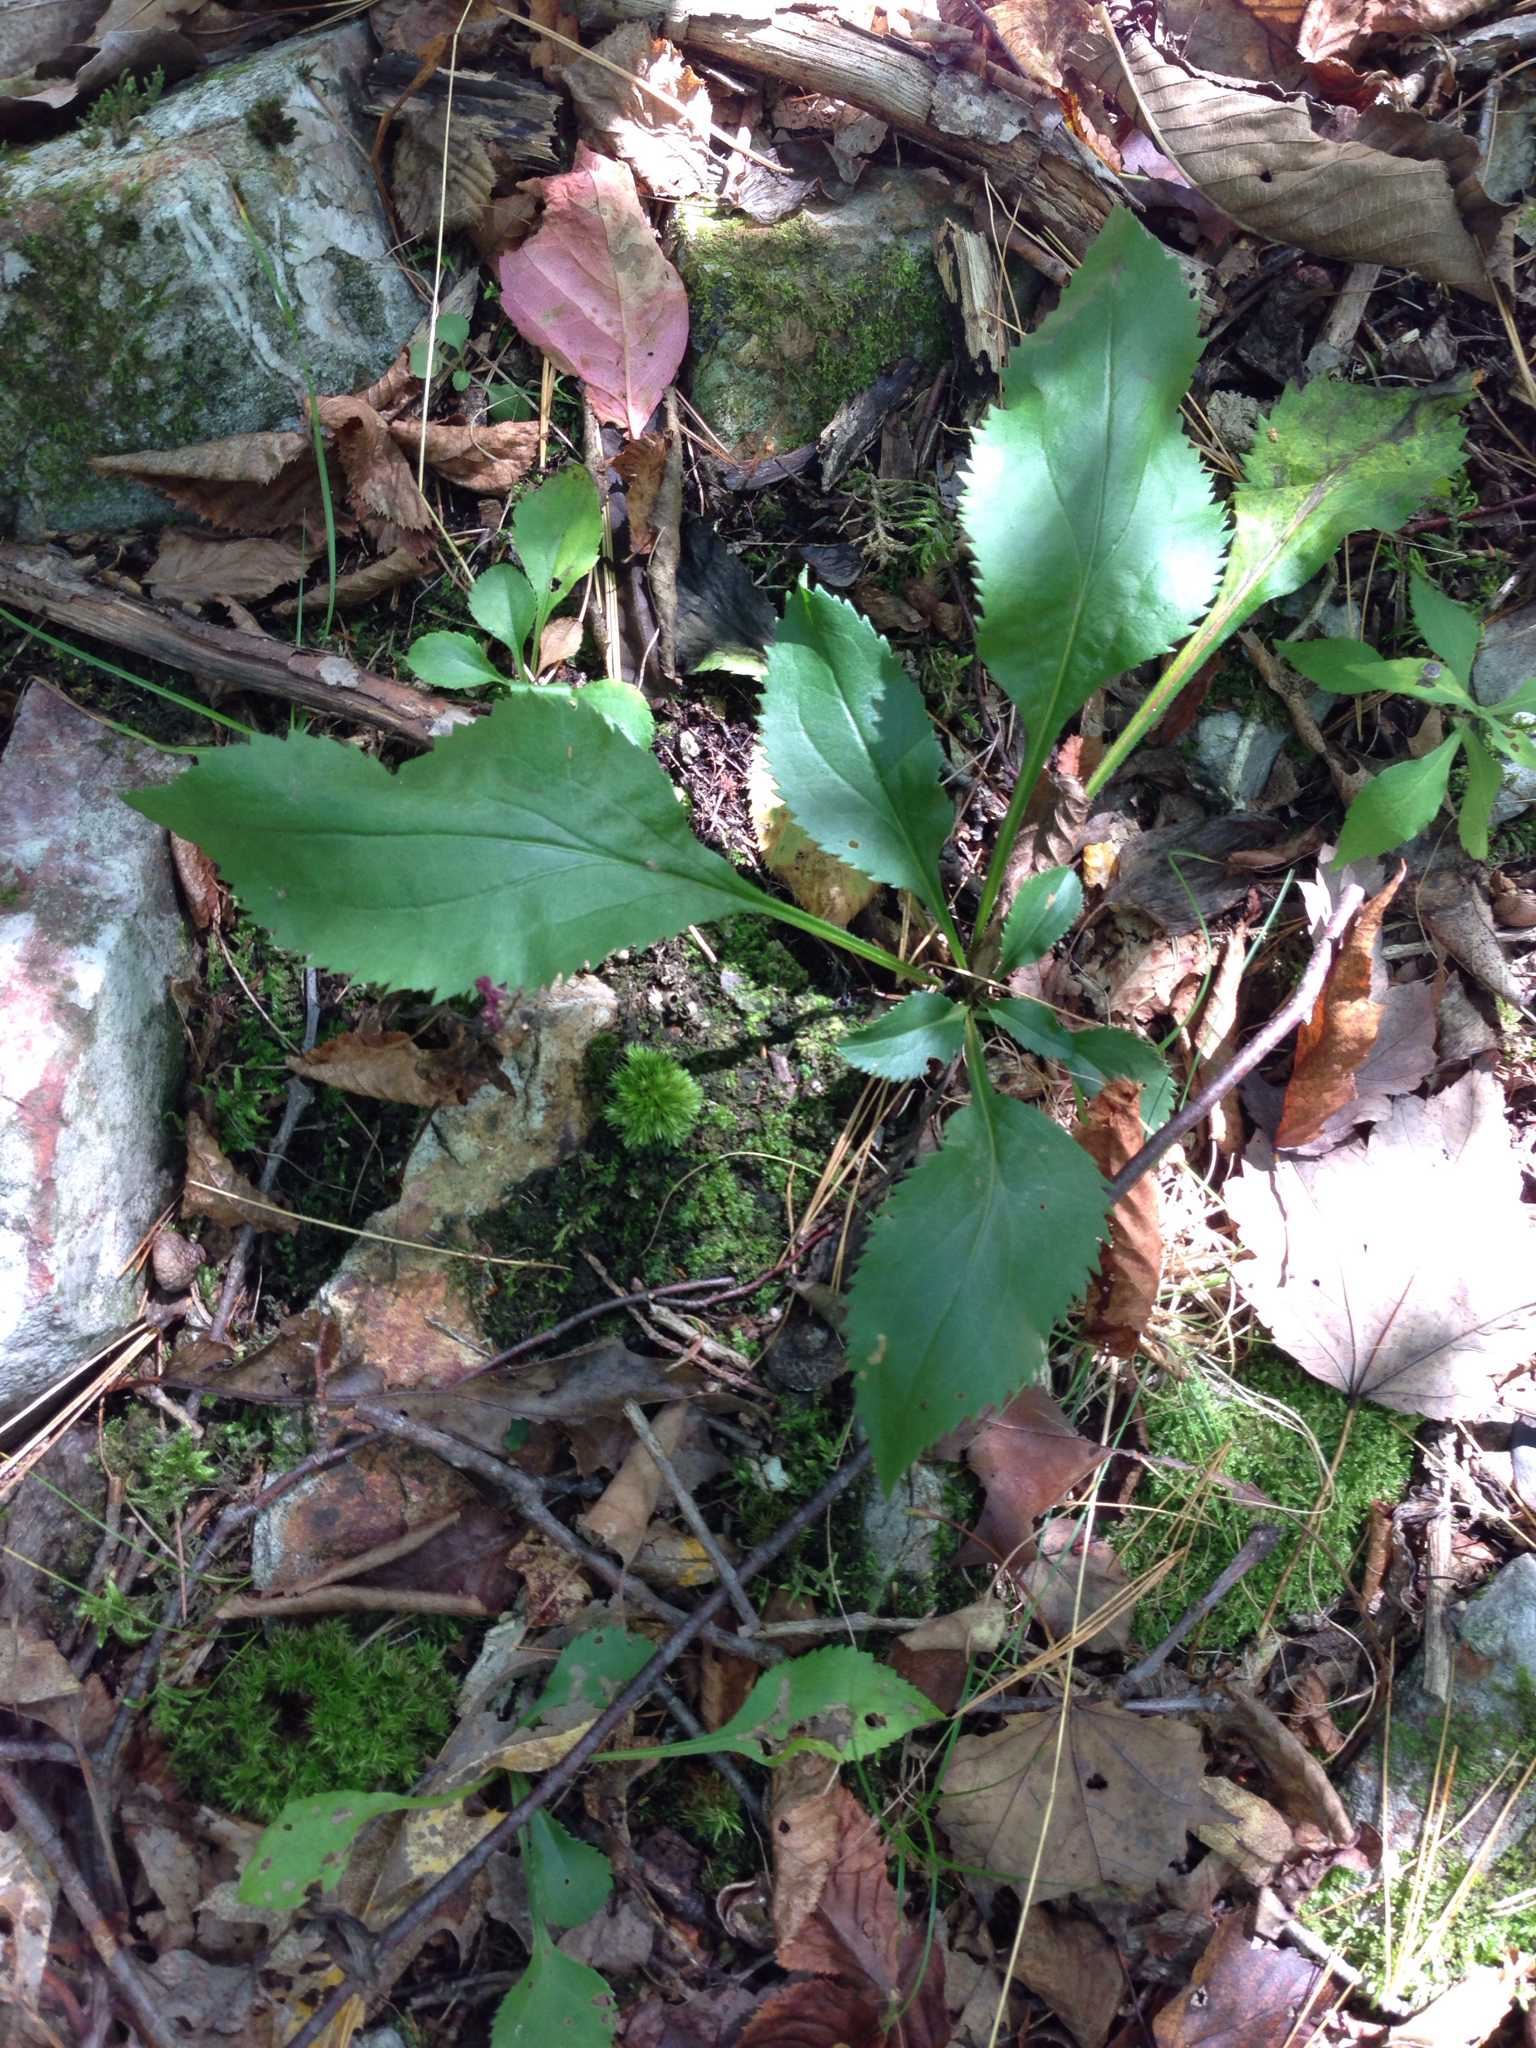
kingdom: Plantae
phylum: Tracheophyta
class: Magnoliopsida
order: Asterales
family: Asteraceae
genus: Solidago
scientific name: Solidago arguta
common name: Atlantic goldenrod
